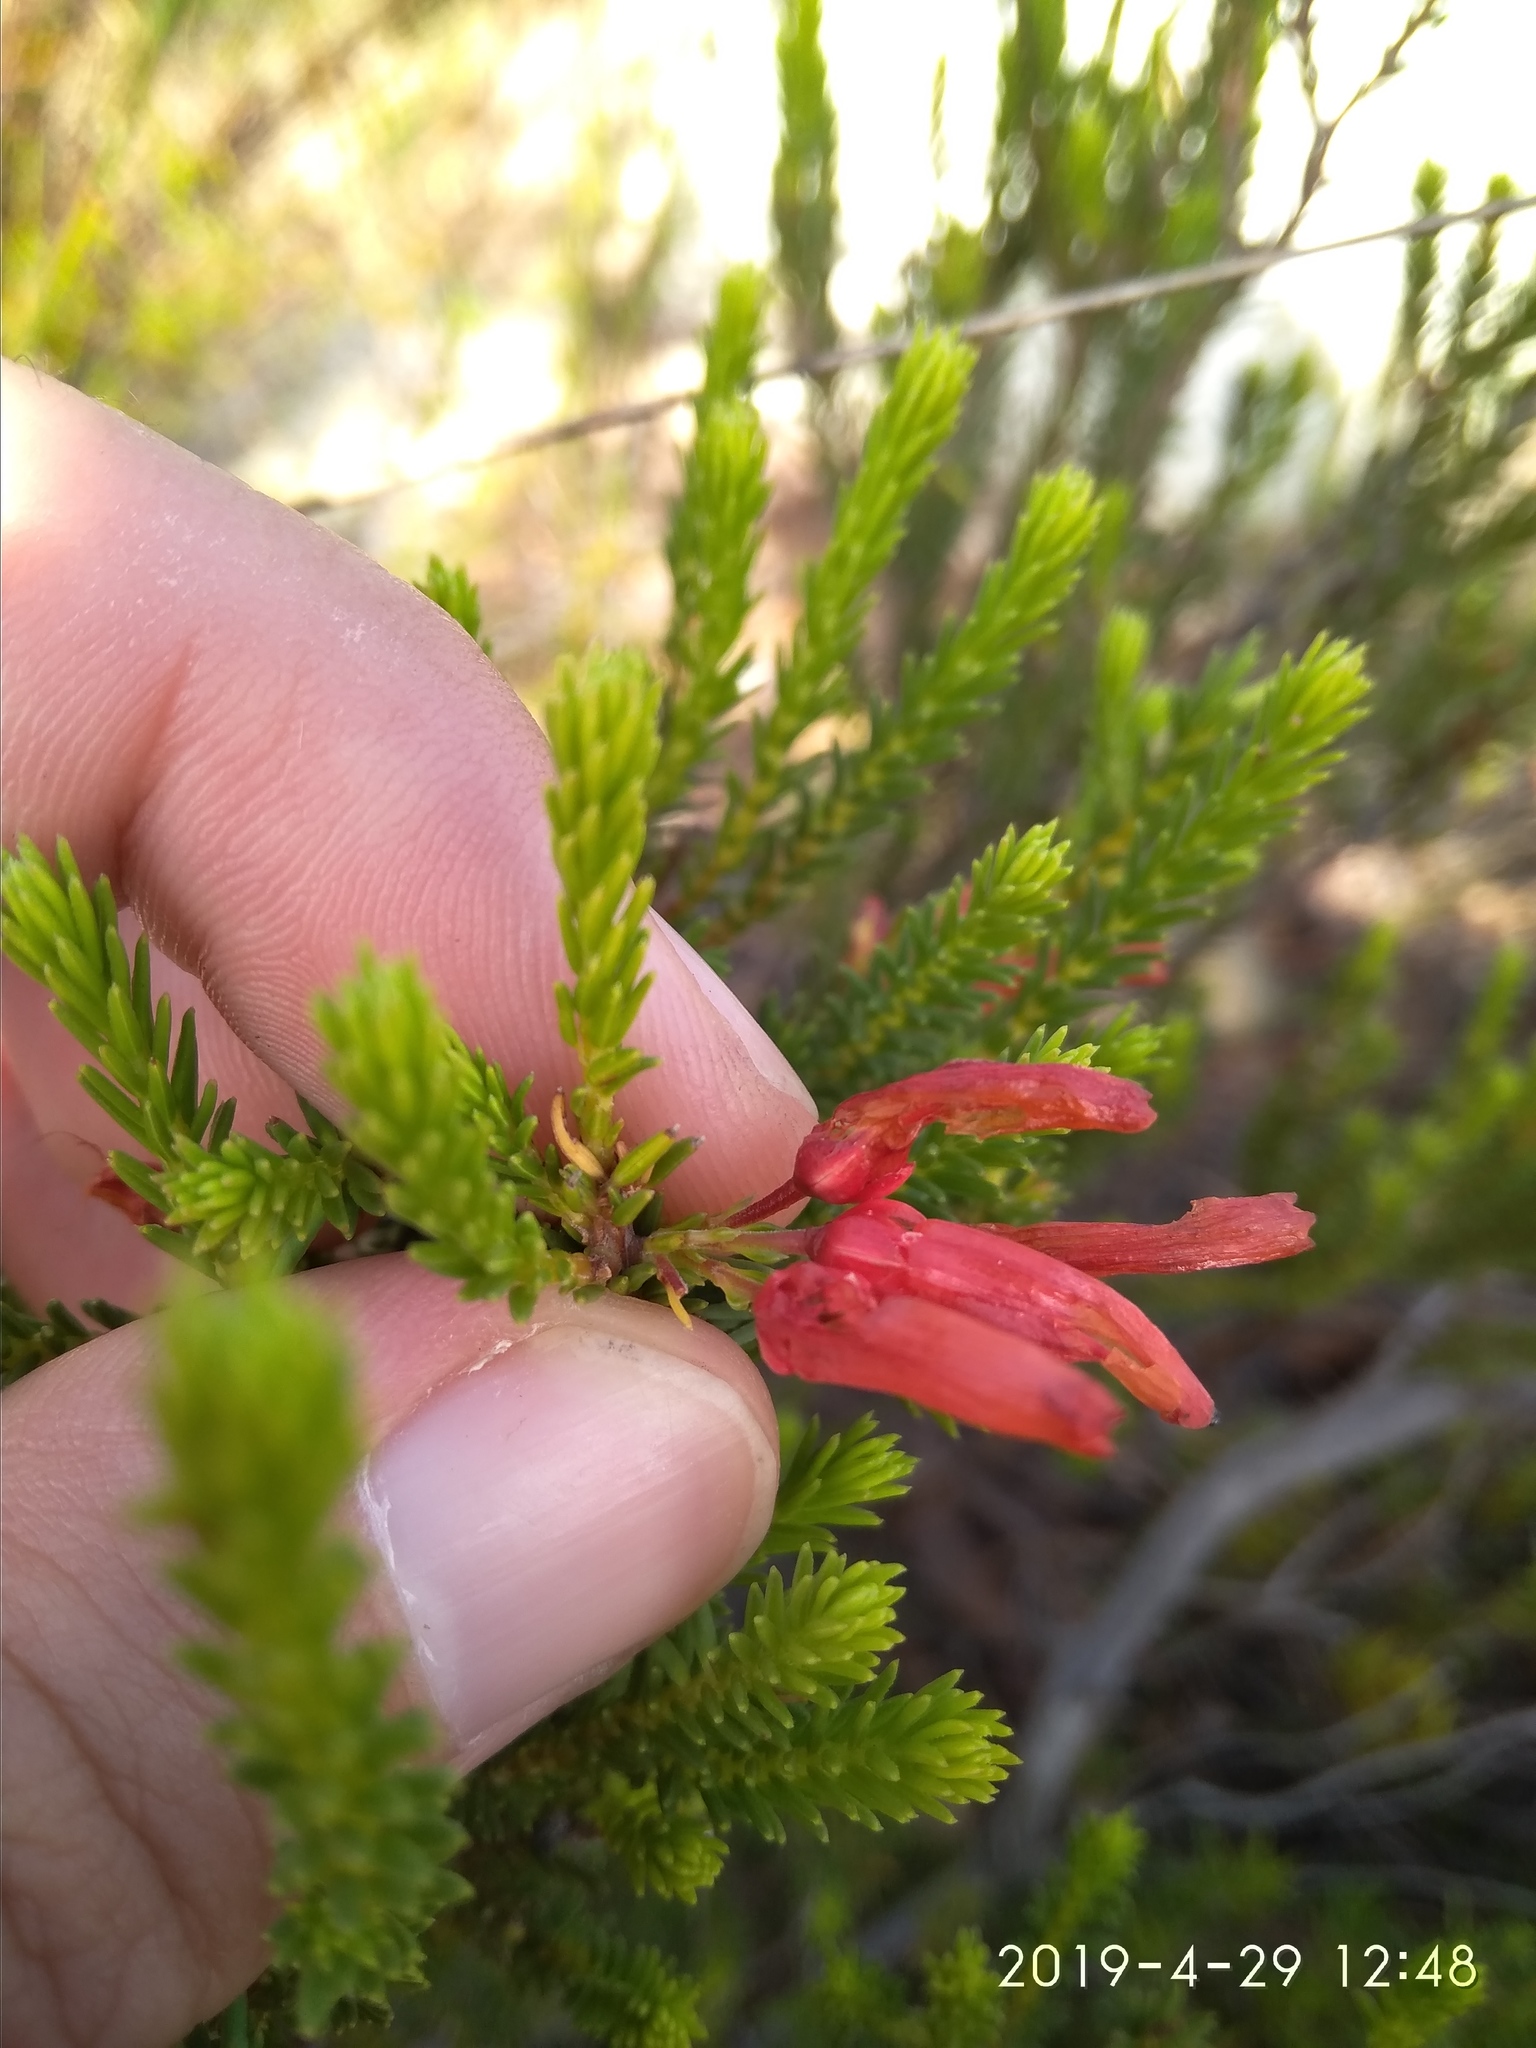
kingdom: Plantae
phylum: Tracheophyta
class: Magnoliopsida
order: Ericales
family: Ericaceae
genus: Erica
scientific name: Erica mammosa
